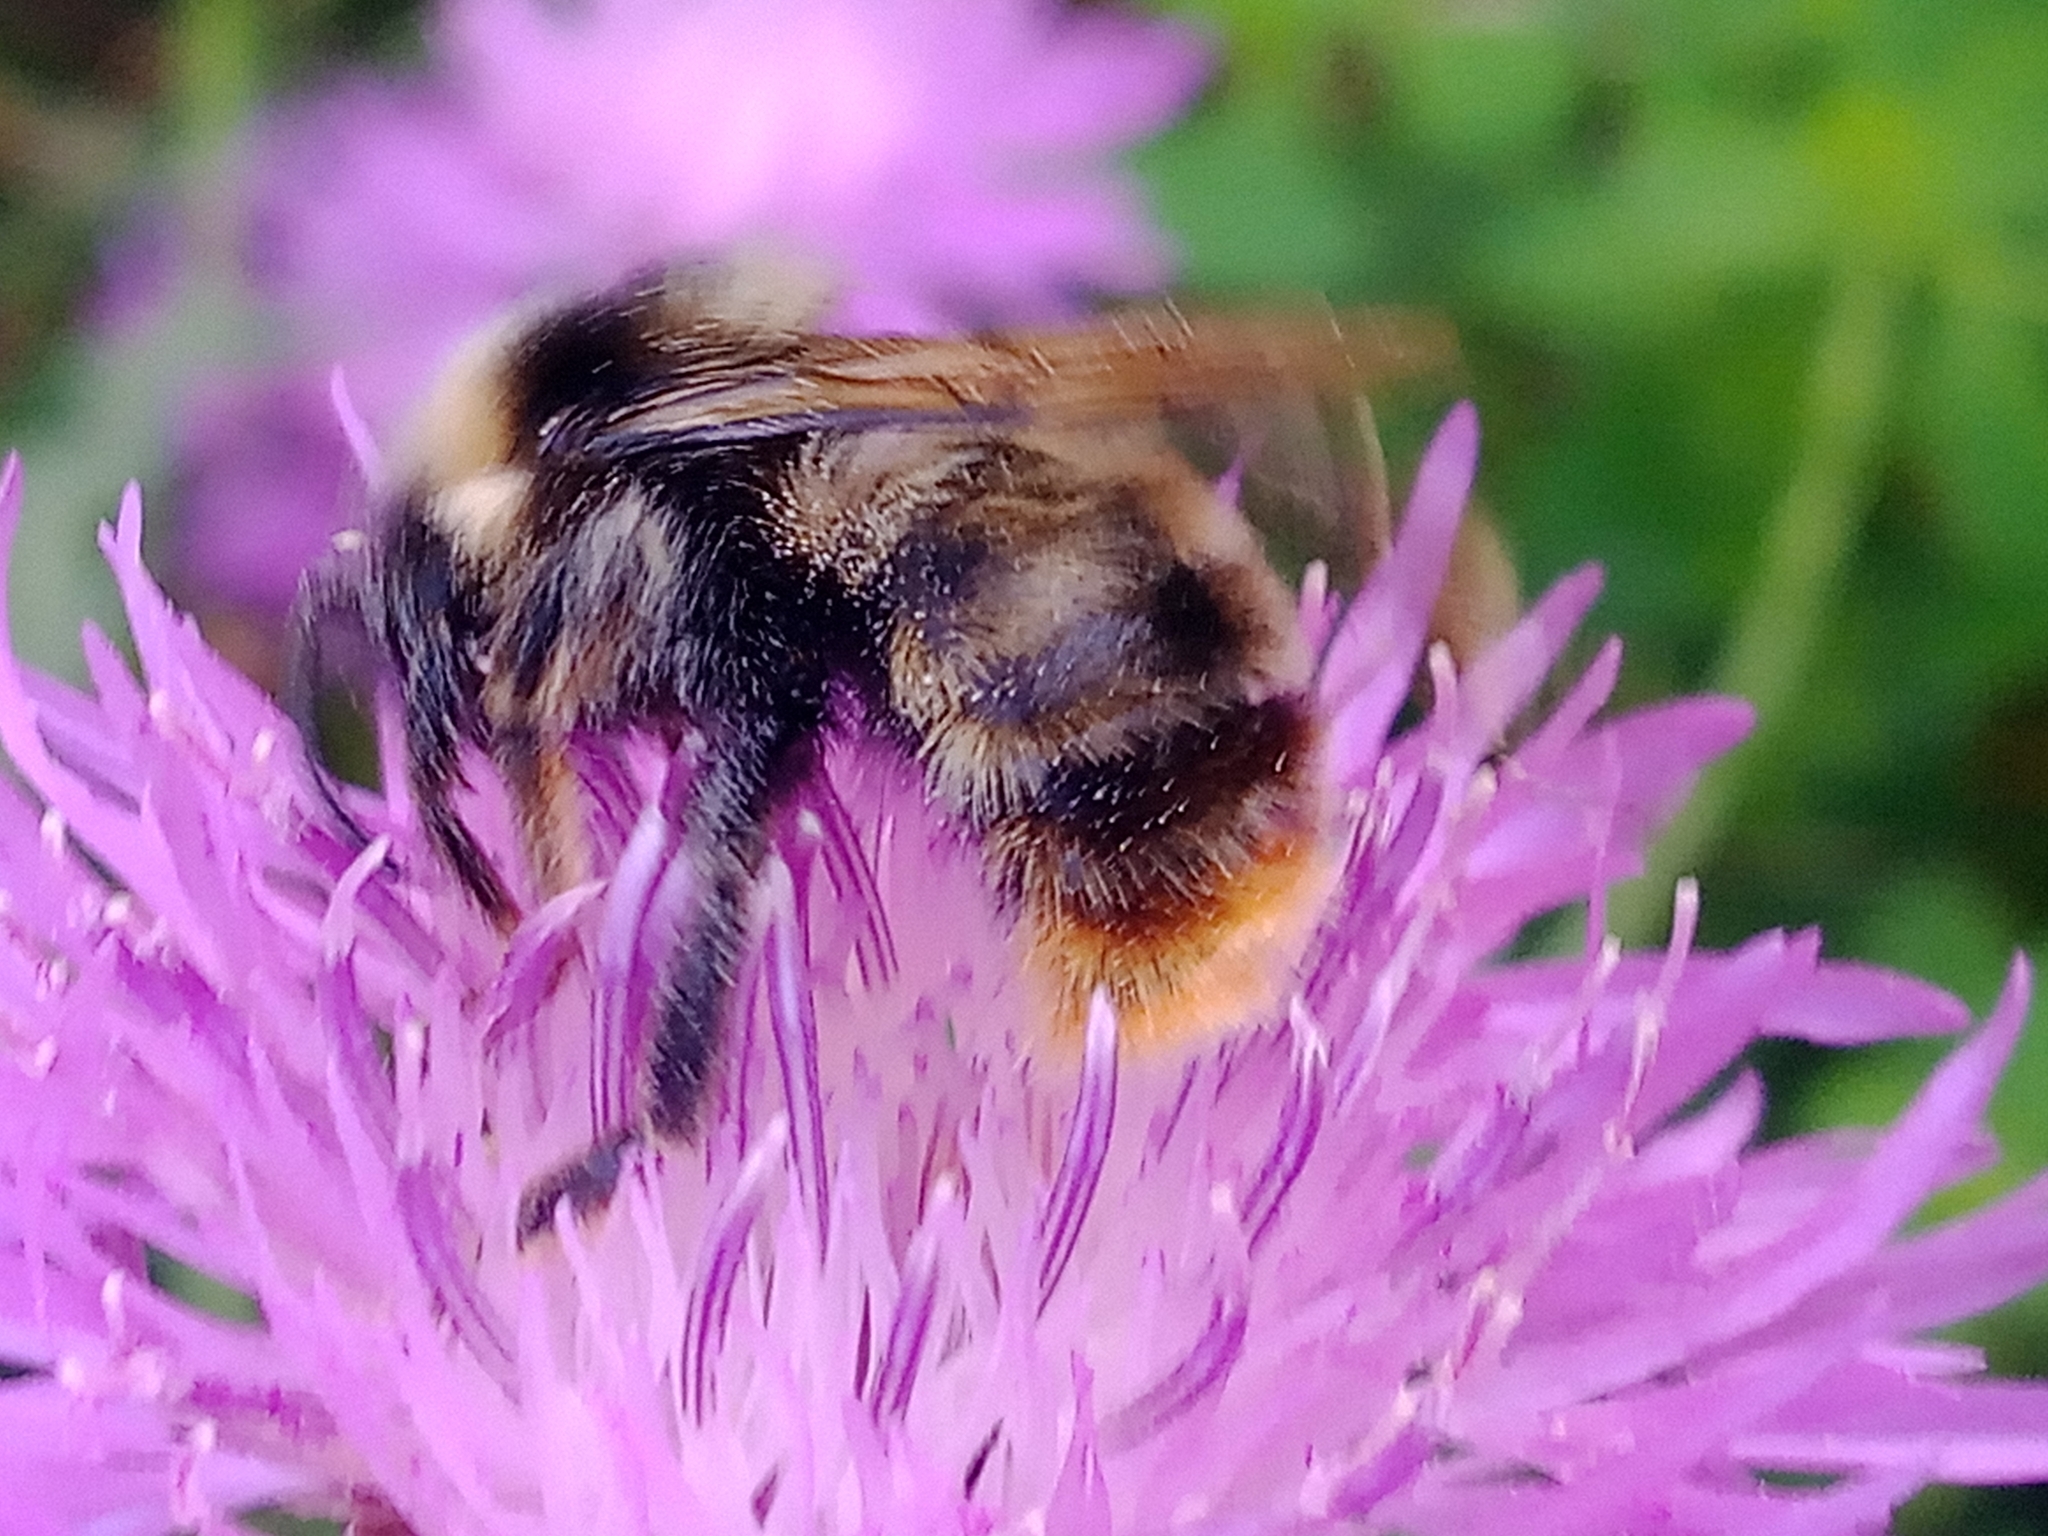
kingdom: Animalia
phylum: Arthropoda
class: Insecta
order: Hymenoptera
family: Apidae
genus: Bombus
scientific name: Bombus rupestris
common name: Hill cuckoo-bee
